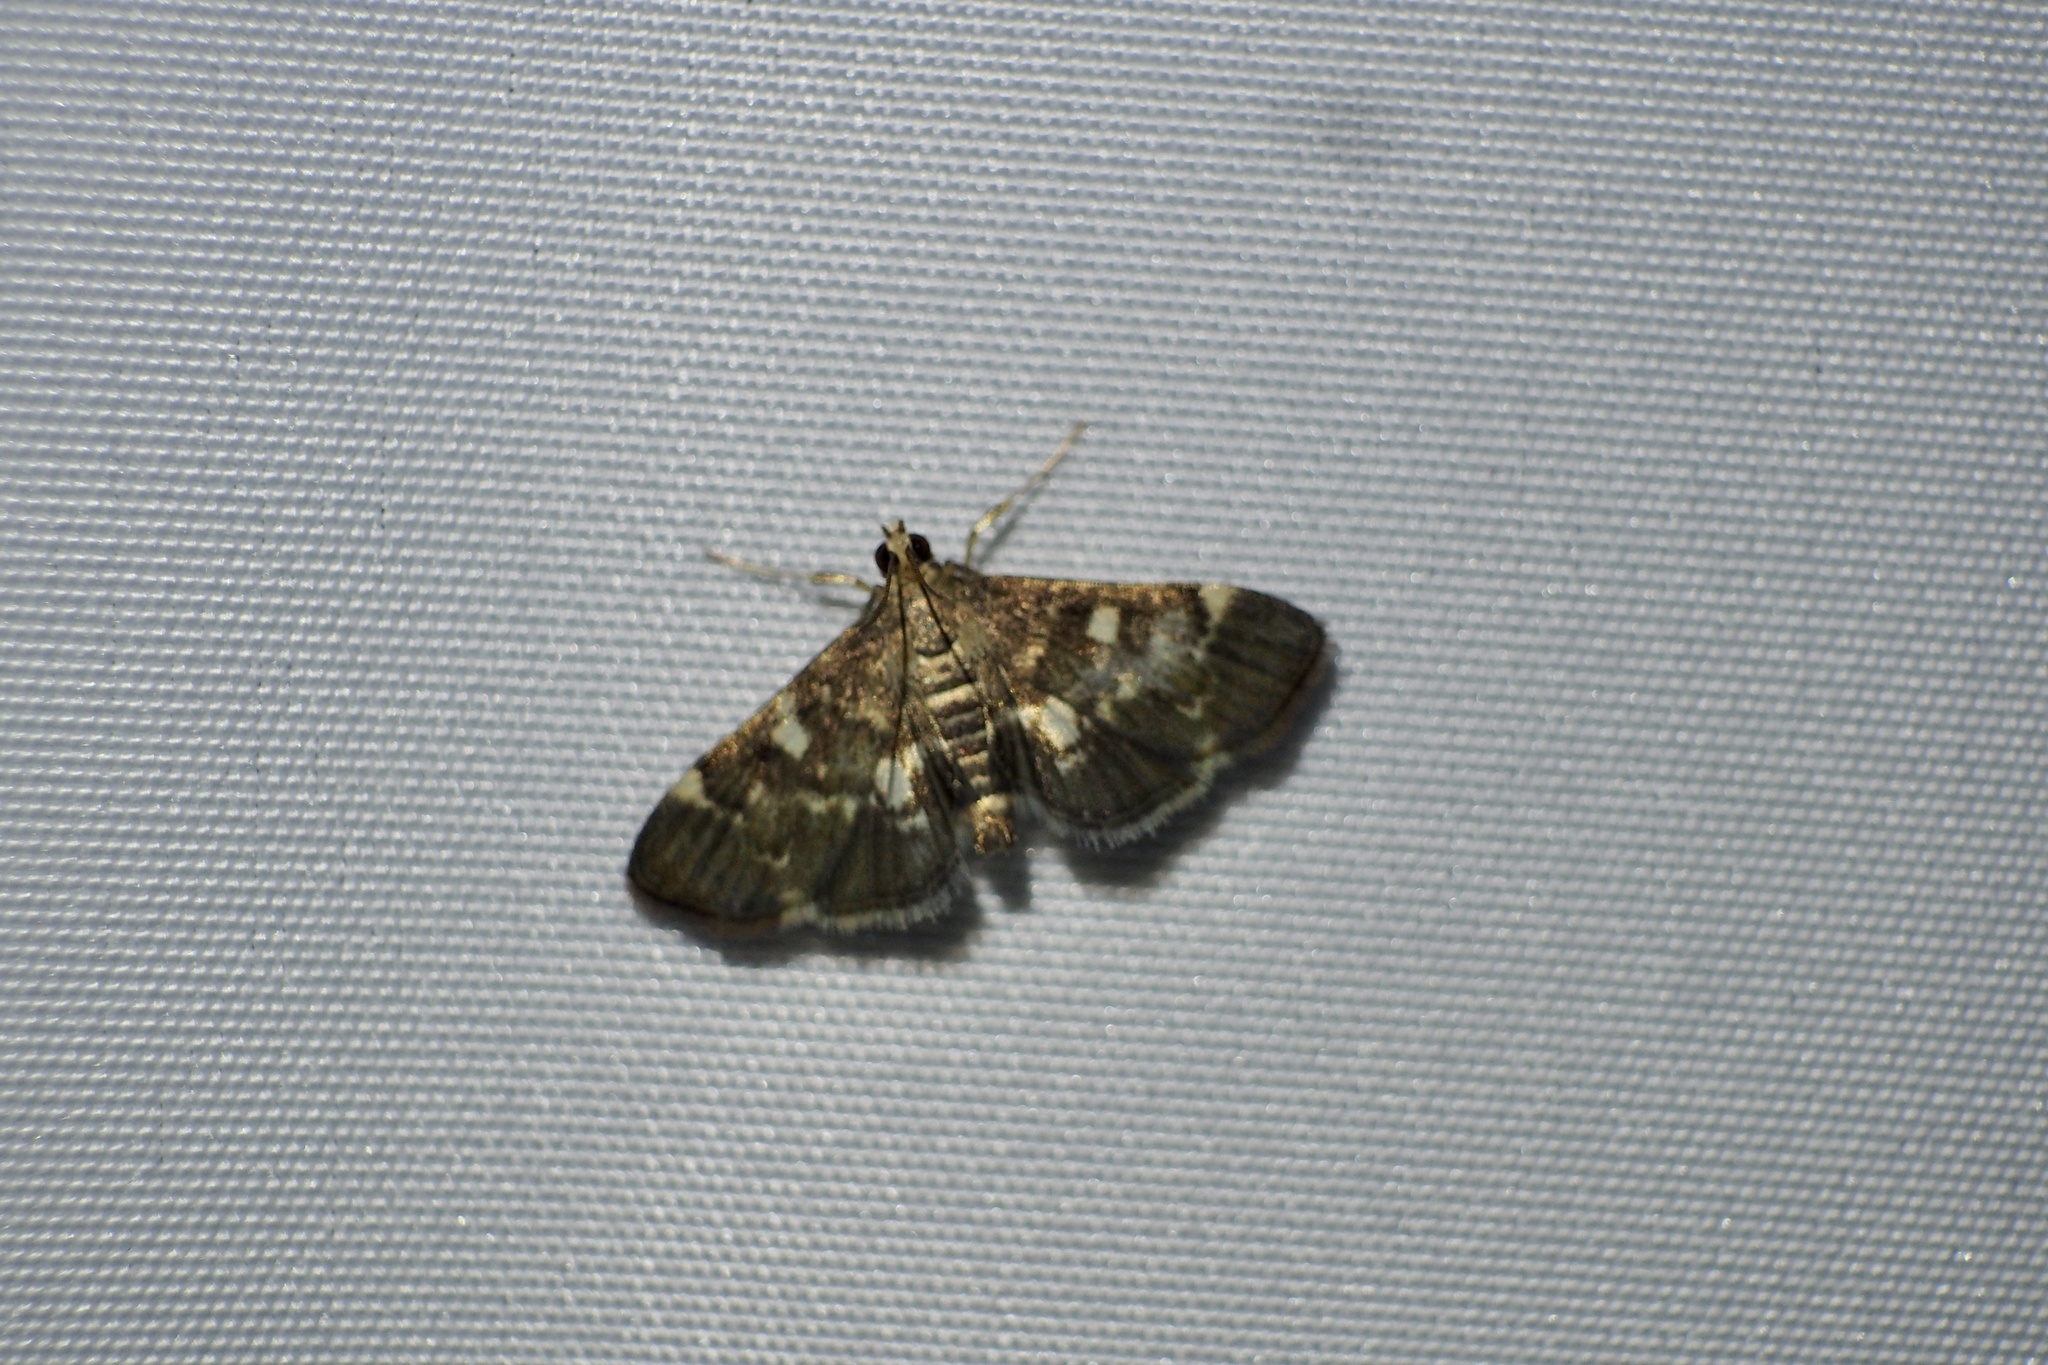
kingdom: Animalia
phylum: Arthropoda
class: Insecta
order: Lepidoptera
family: Crambidae
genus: Piletocera
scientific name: Piletocera sodalis
